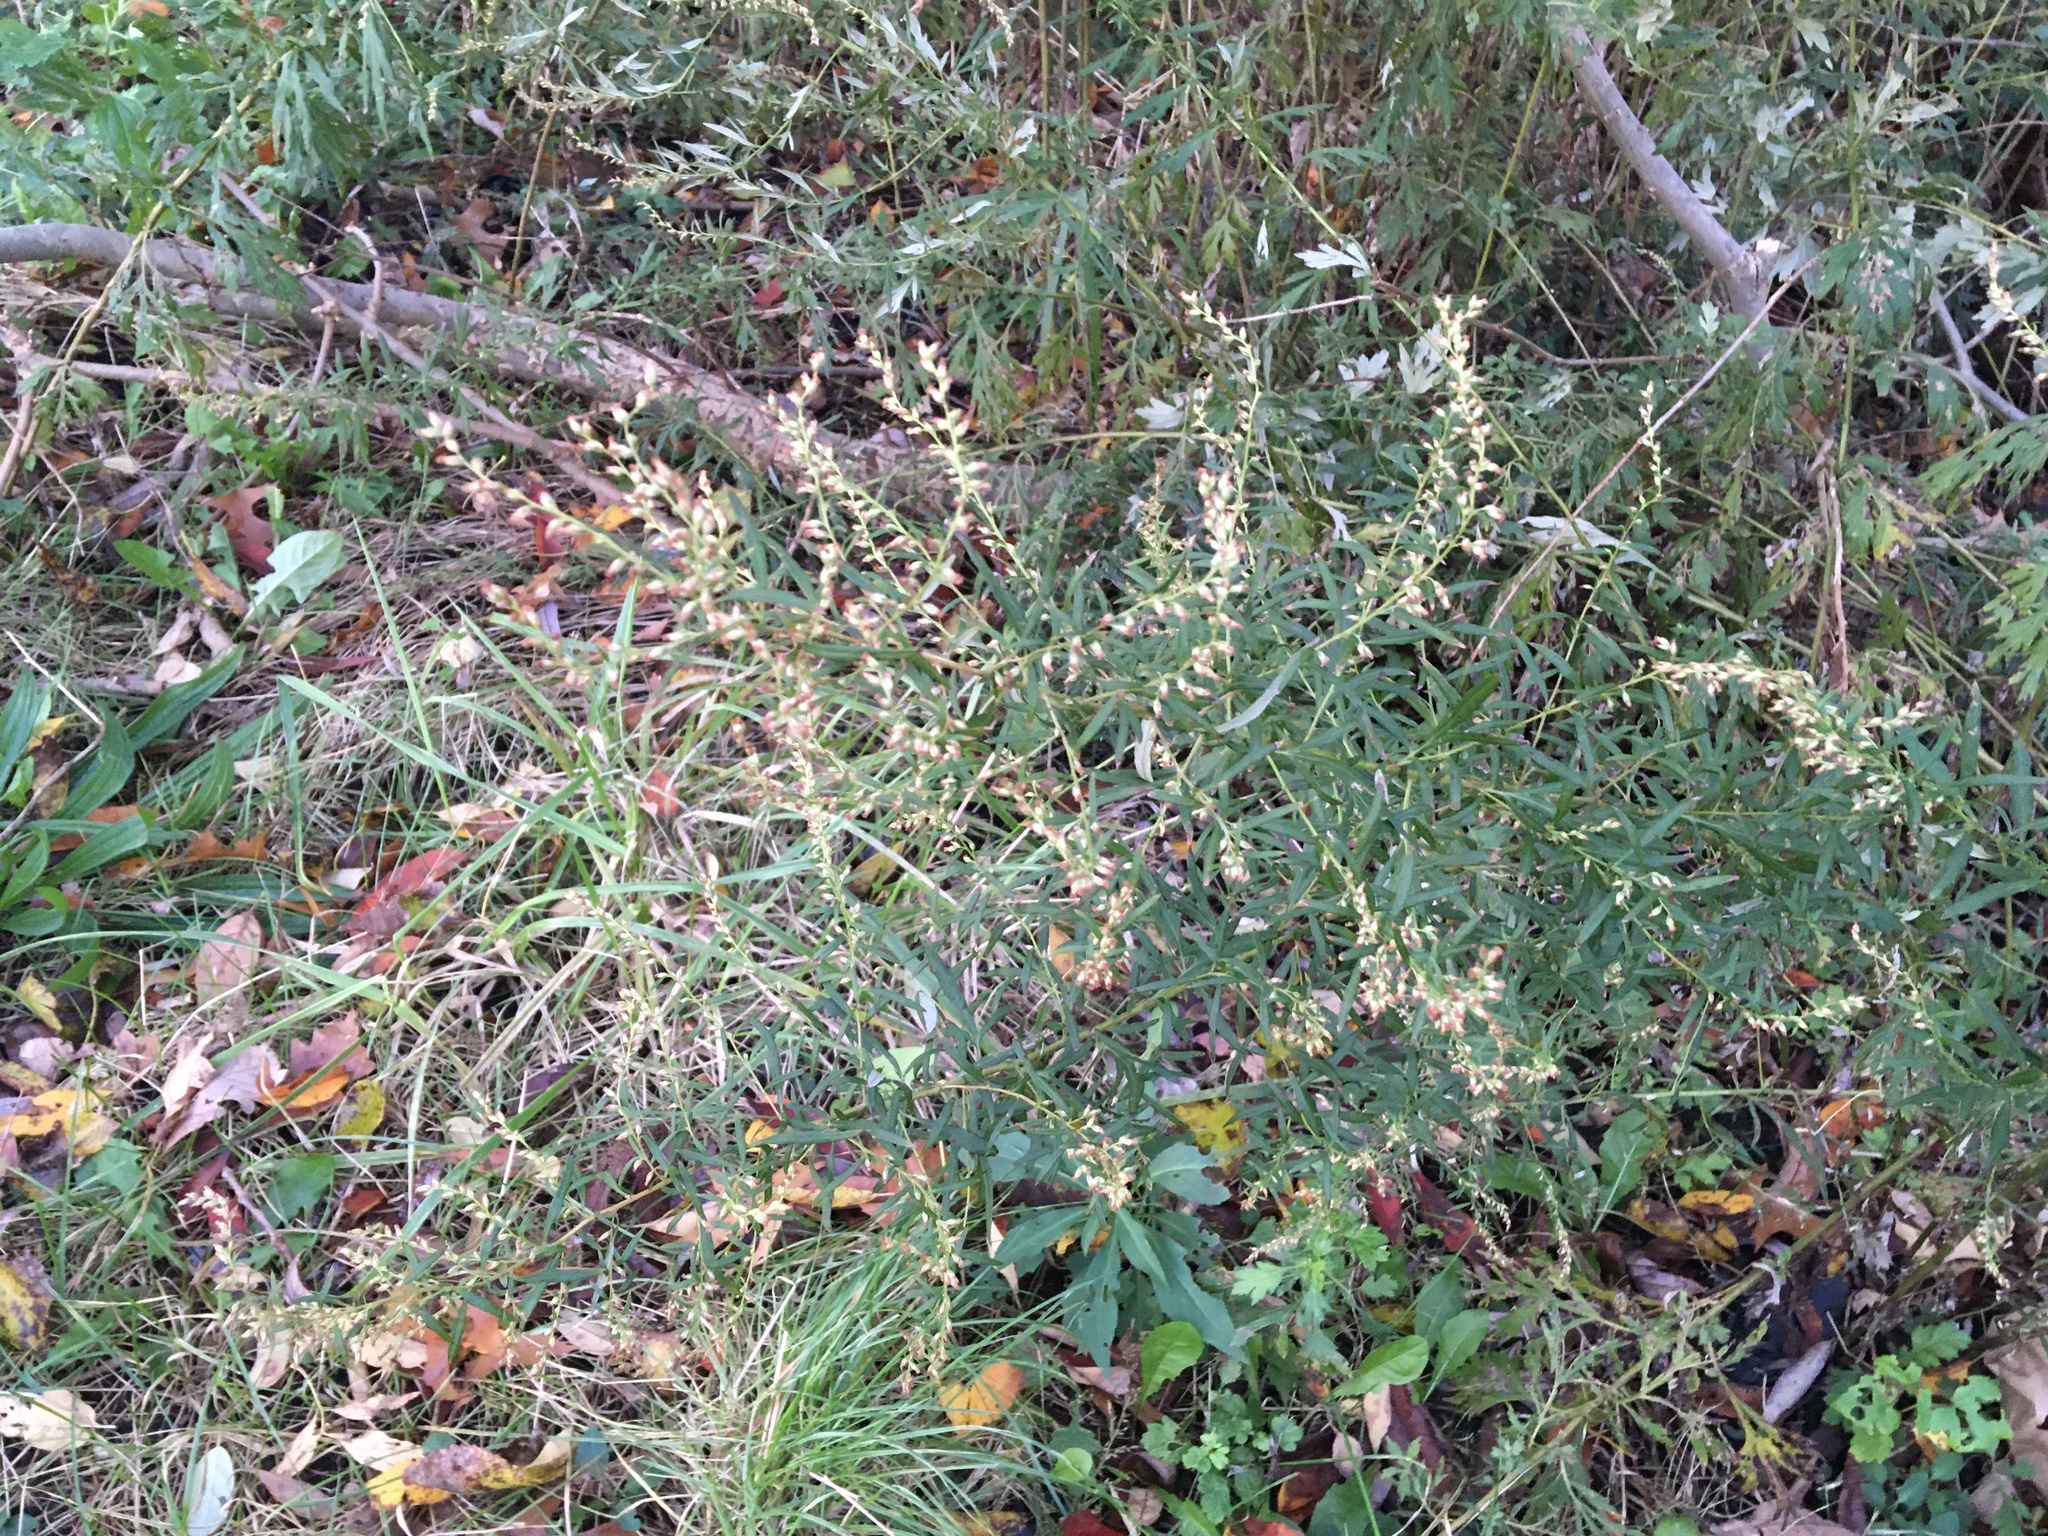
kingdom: Plantae
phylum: Tracheophyta
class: Magnoliopsida
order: Asterales
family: Asteraceae
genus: Artemisia
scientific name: Artemisia vulgaris
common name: Mugwort
